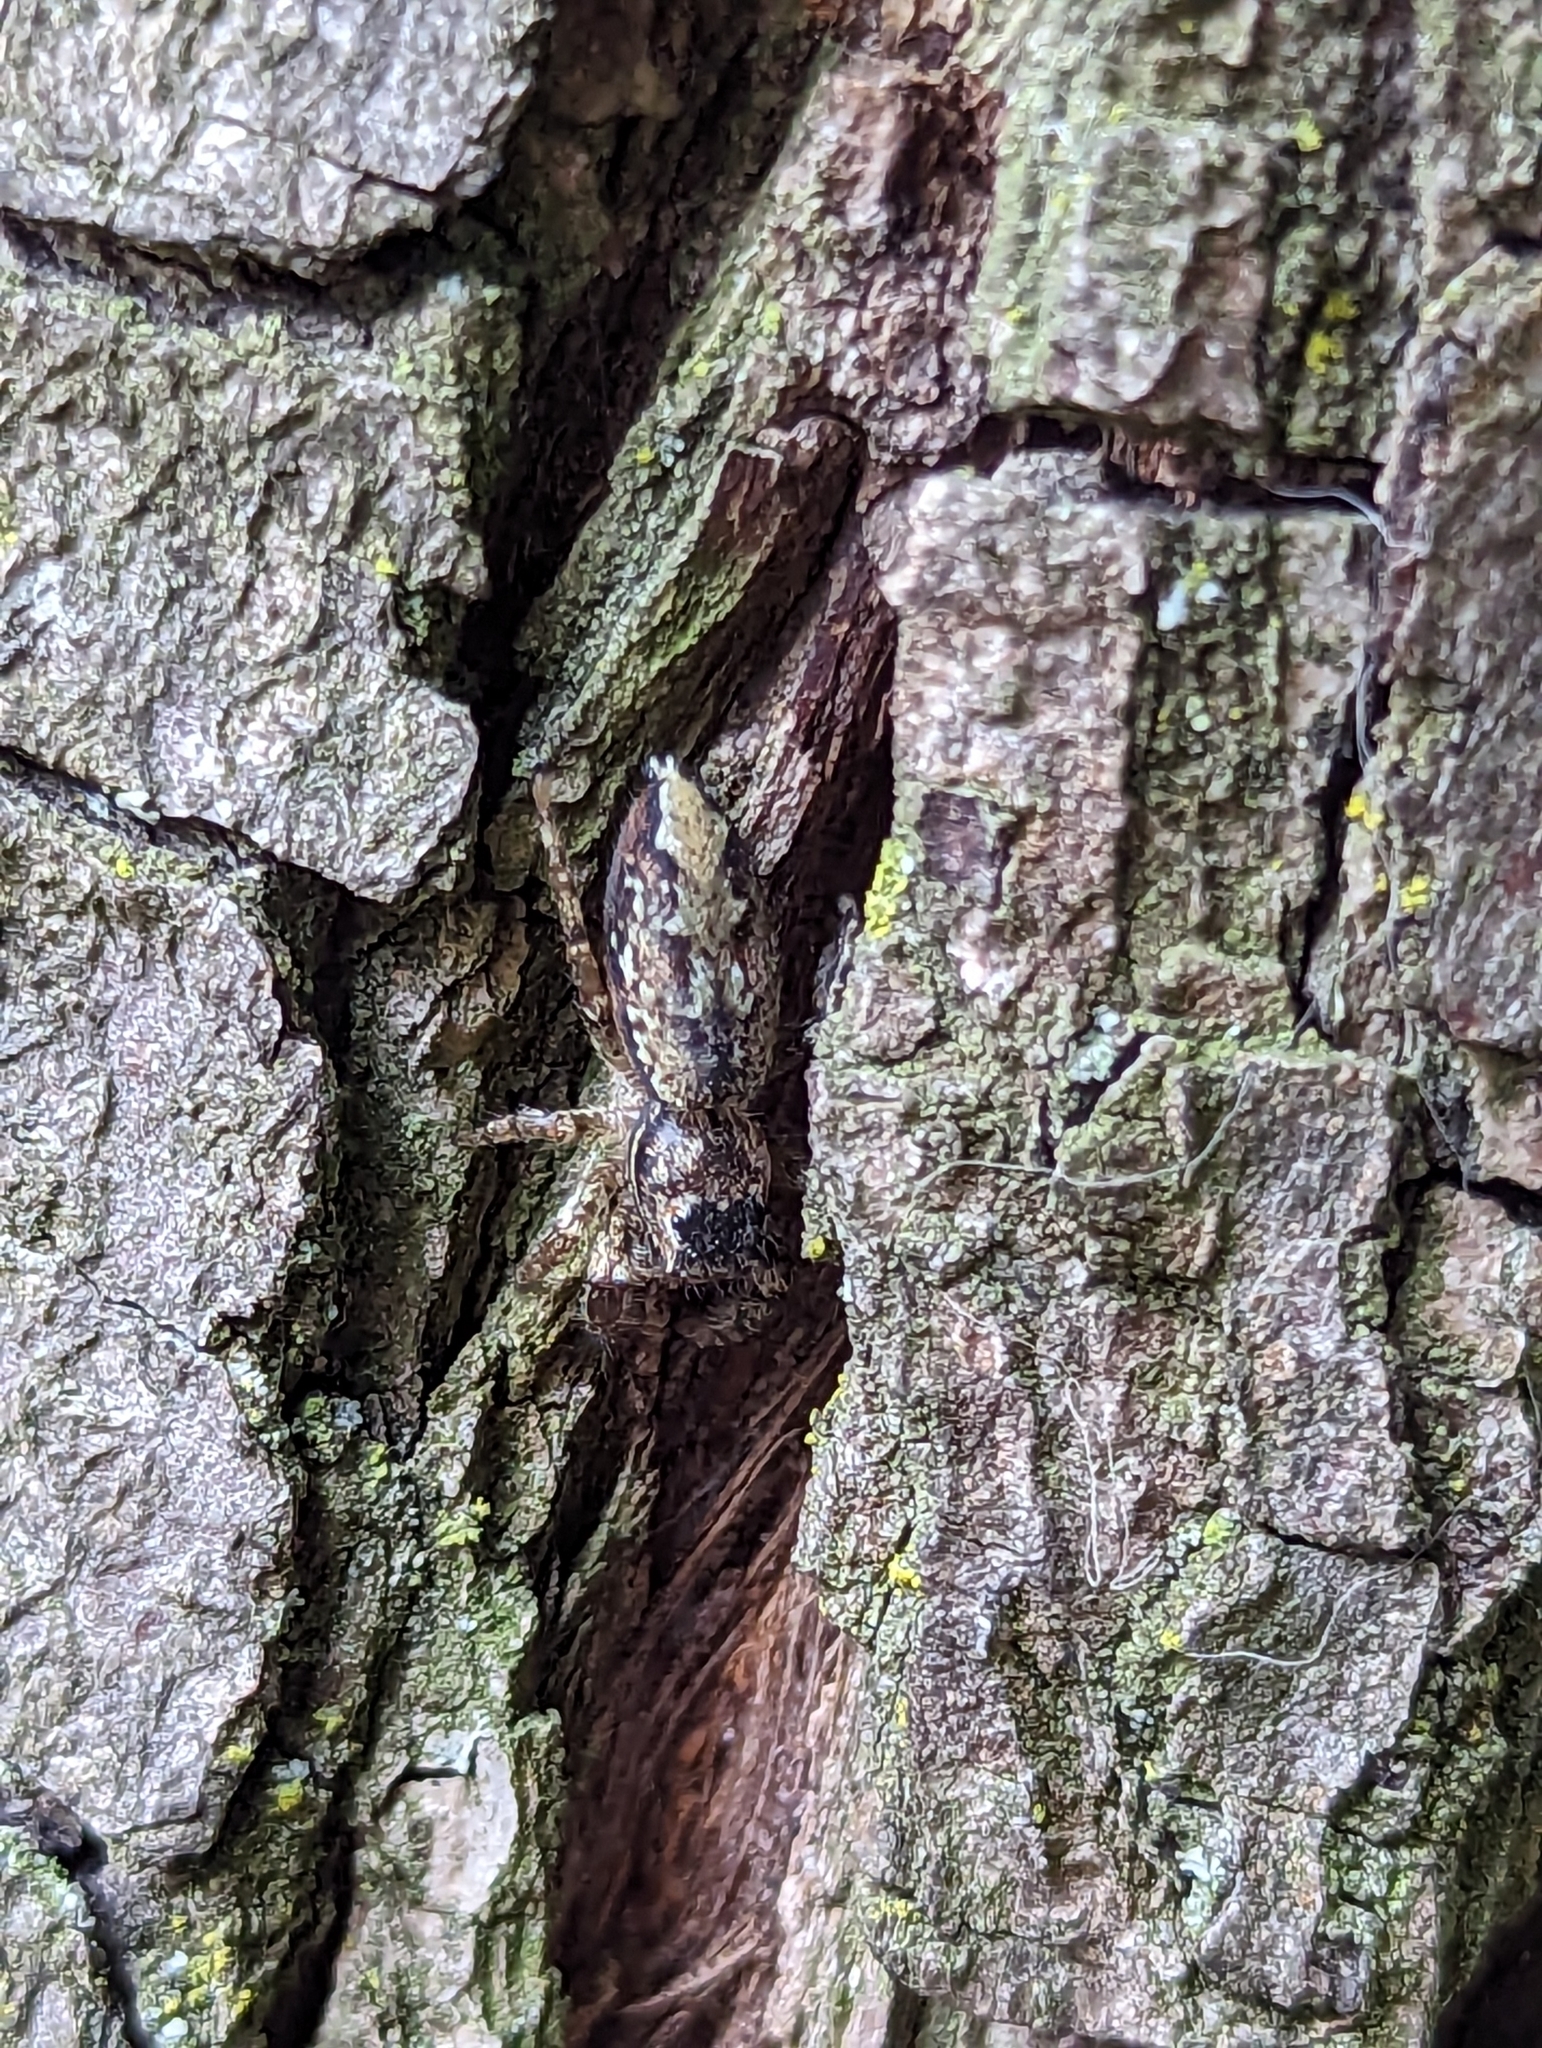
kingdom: Animalia
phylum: Arthropoda
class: Arachnida
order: Araneae
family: Salticidae
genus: Marpissa
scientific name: Marpissa muscosa
